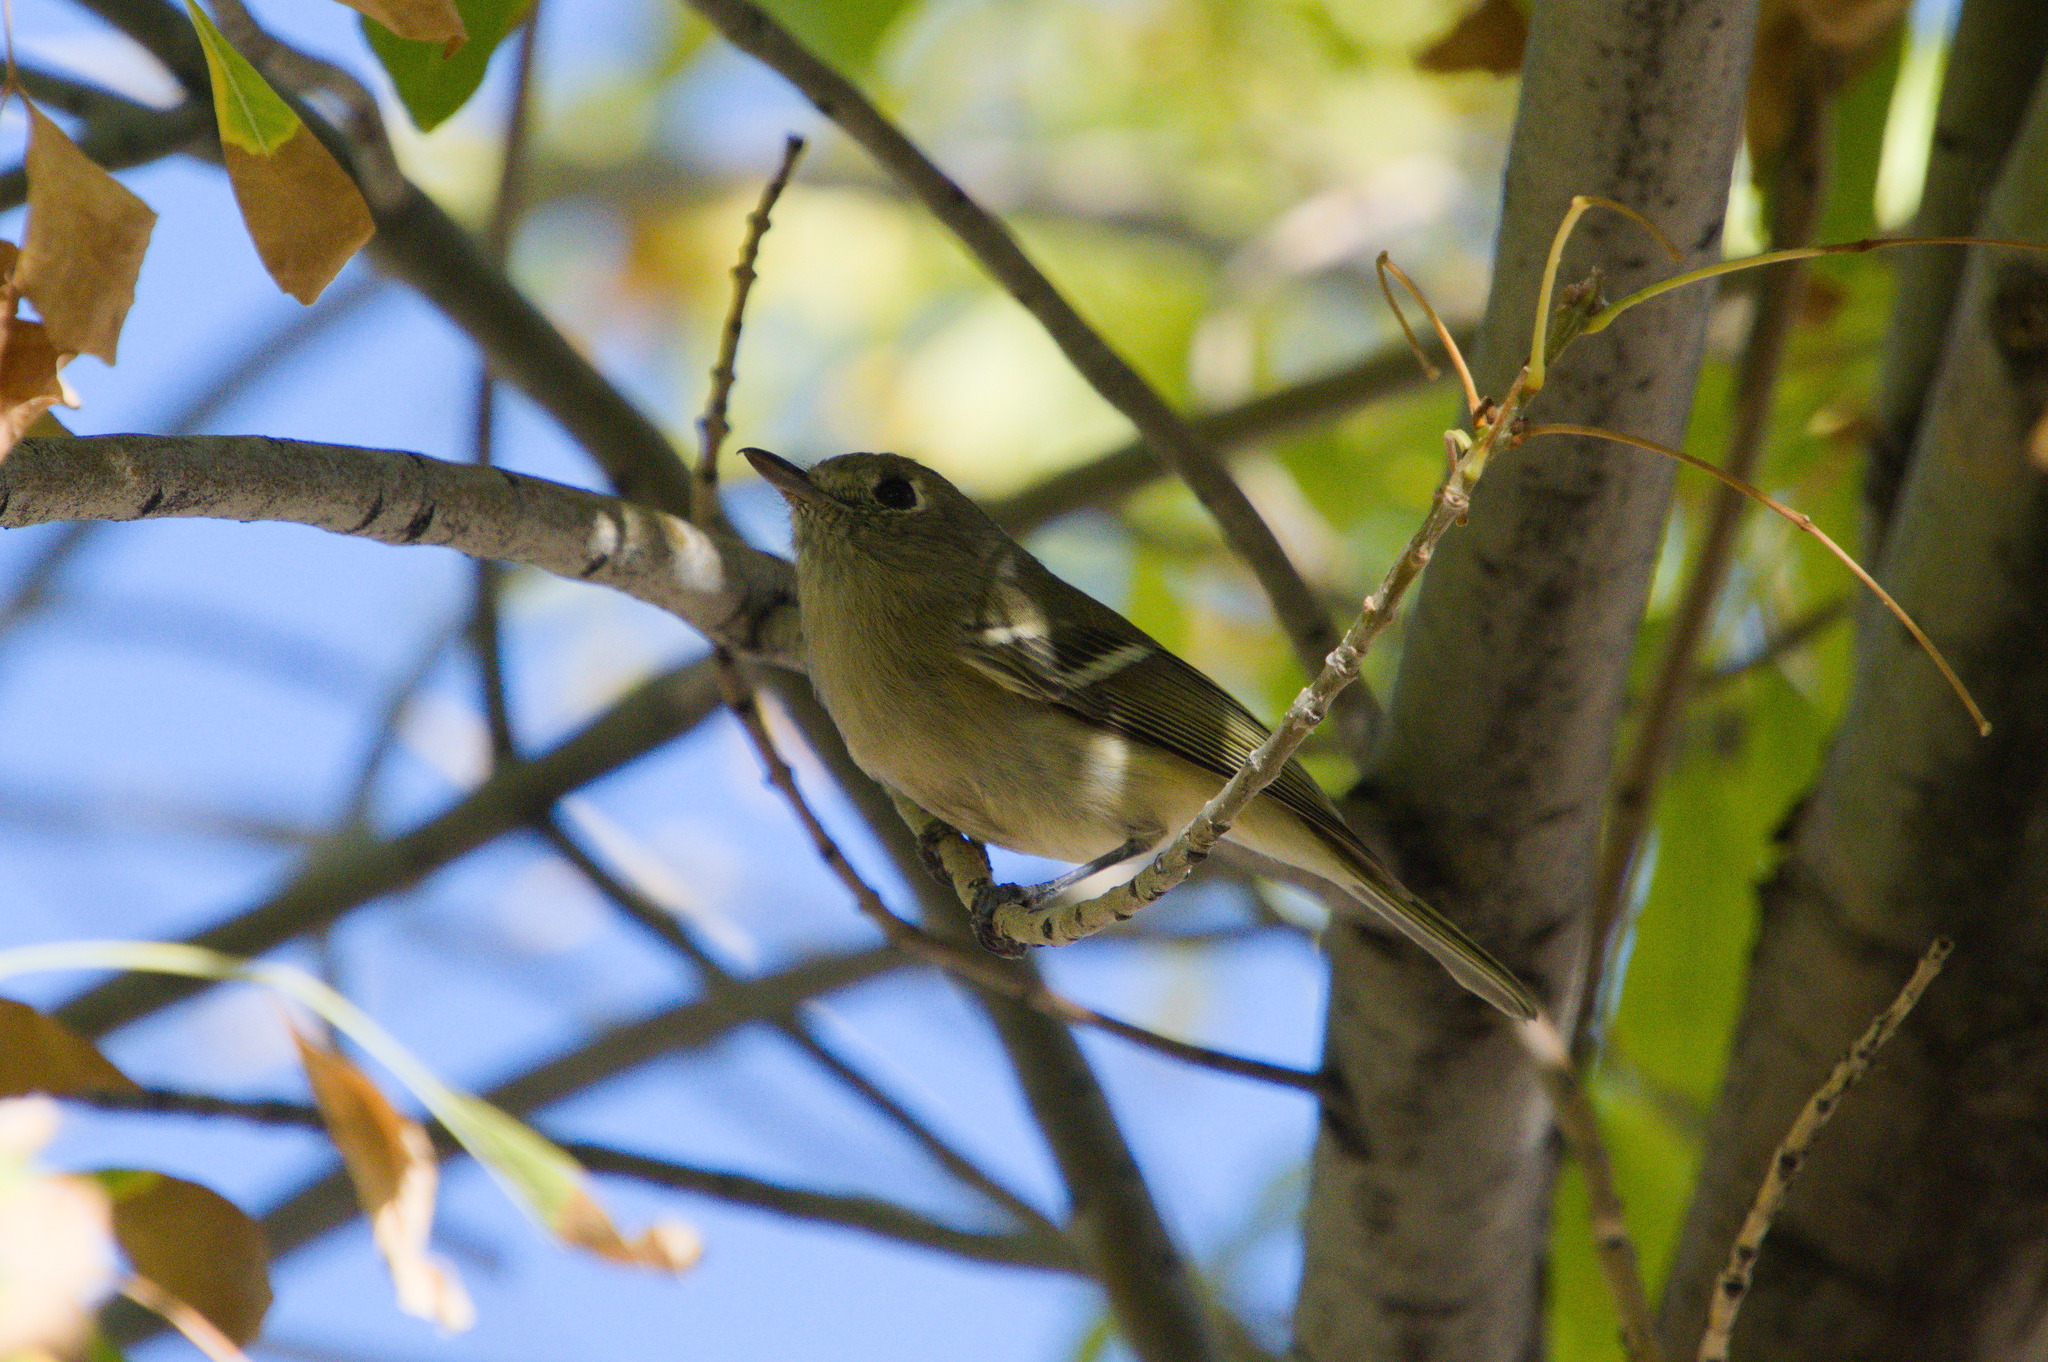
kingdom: Animalia
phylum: Chordata
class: Aves
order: Passeriformes
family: Vireonidae
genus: Vireo
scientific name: Vireo huttoni
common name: Hutton's vireo
